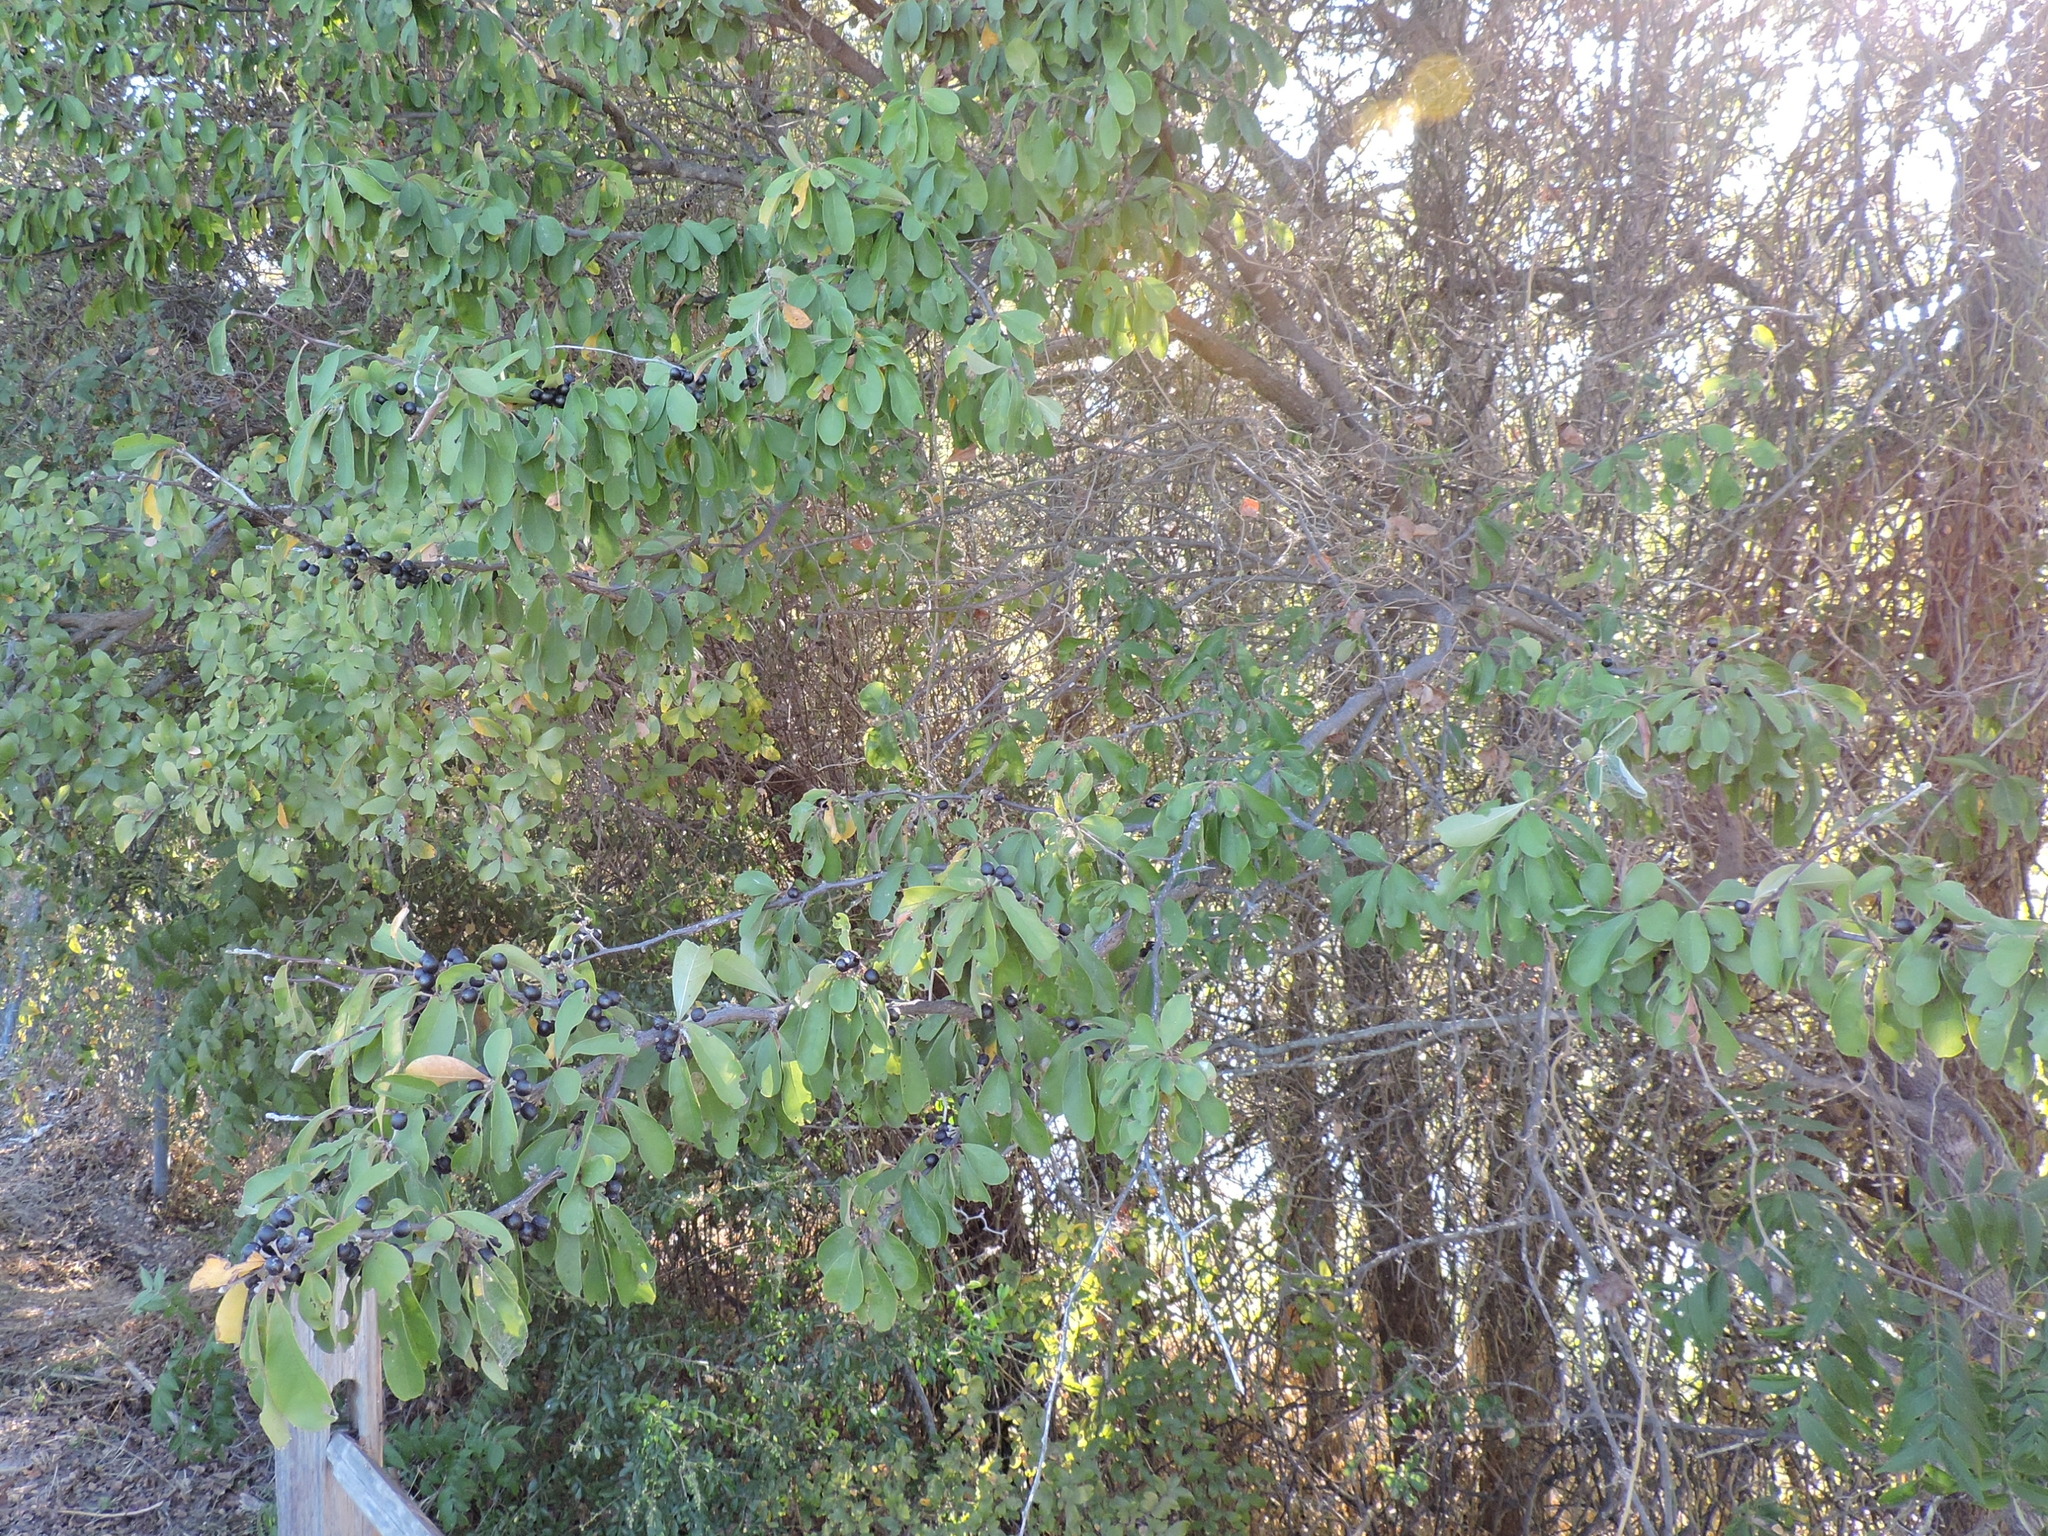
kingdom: Plantae
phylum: Tracheophyta
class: Magnoliopsida
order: Ericales
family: Sapotaceae
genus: Sideroxylon
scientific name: Sideroxylon lanuginosum
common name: Chittamwood
